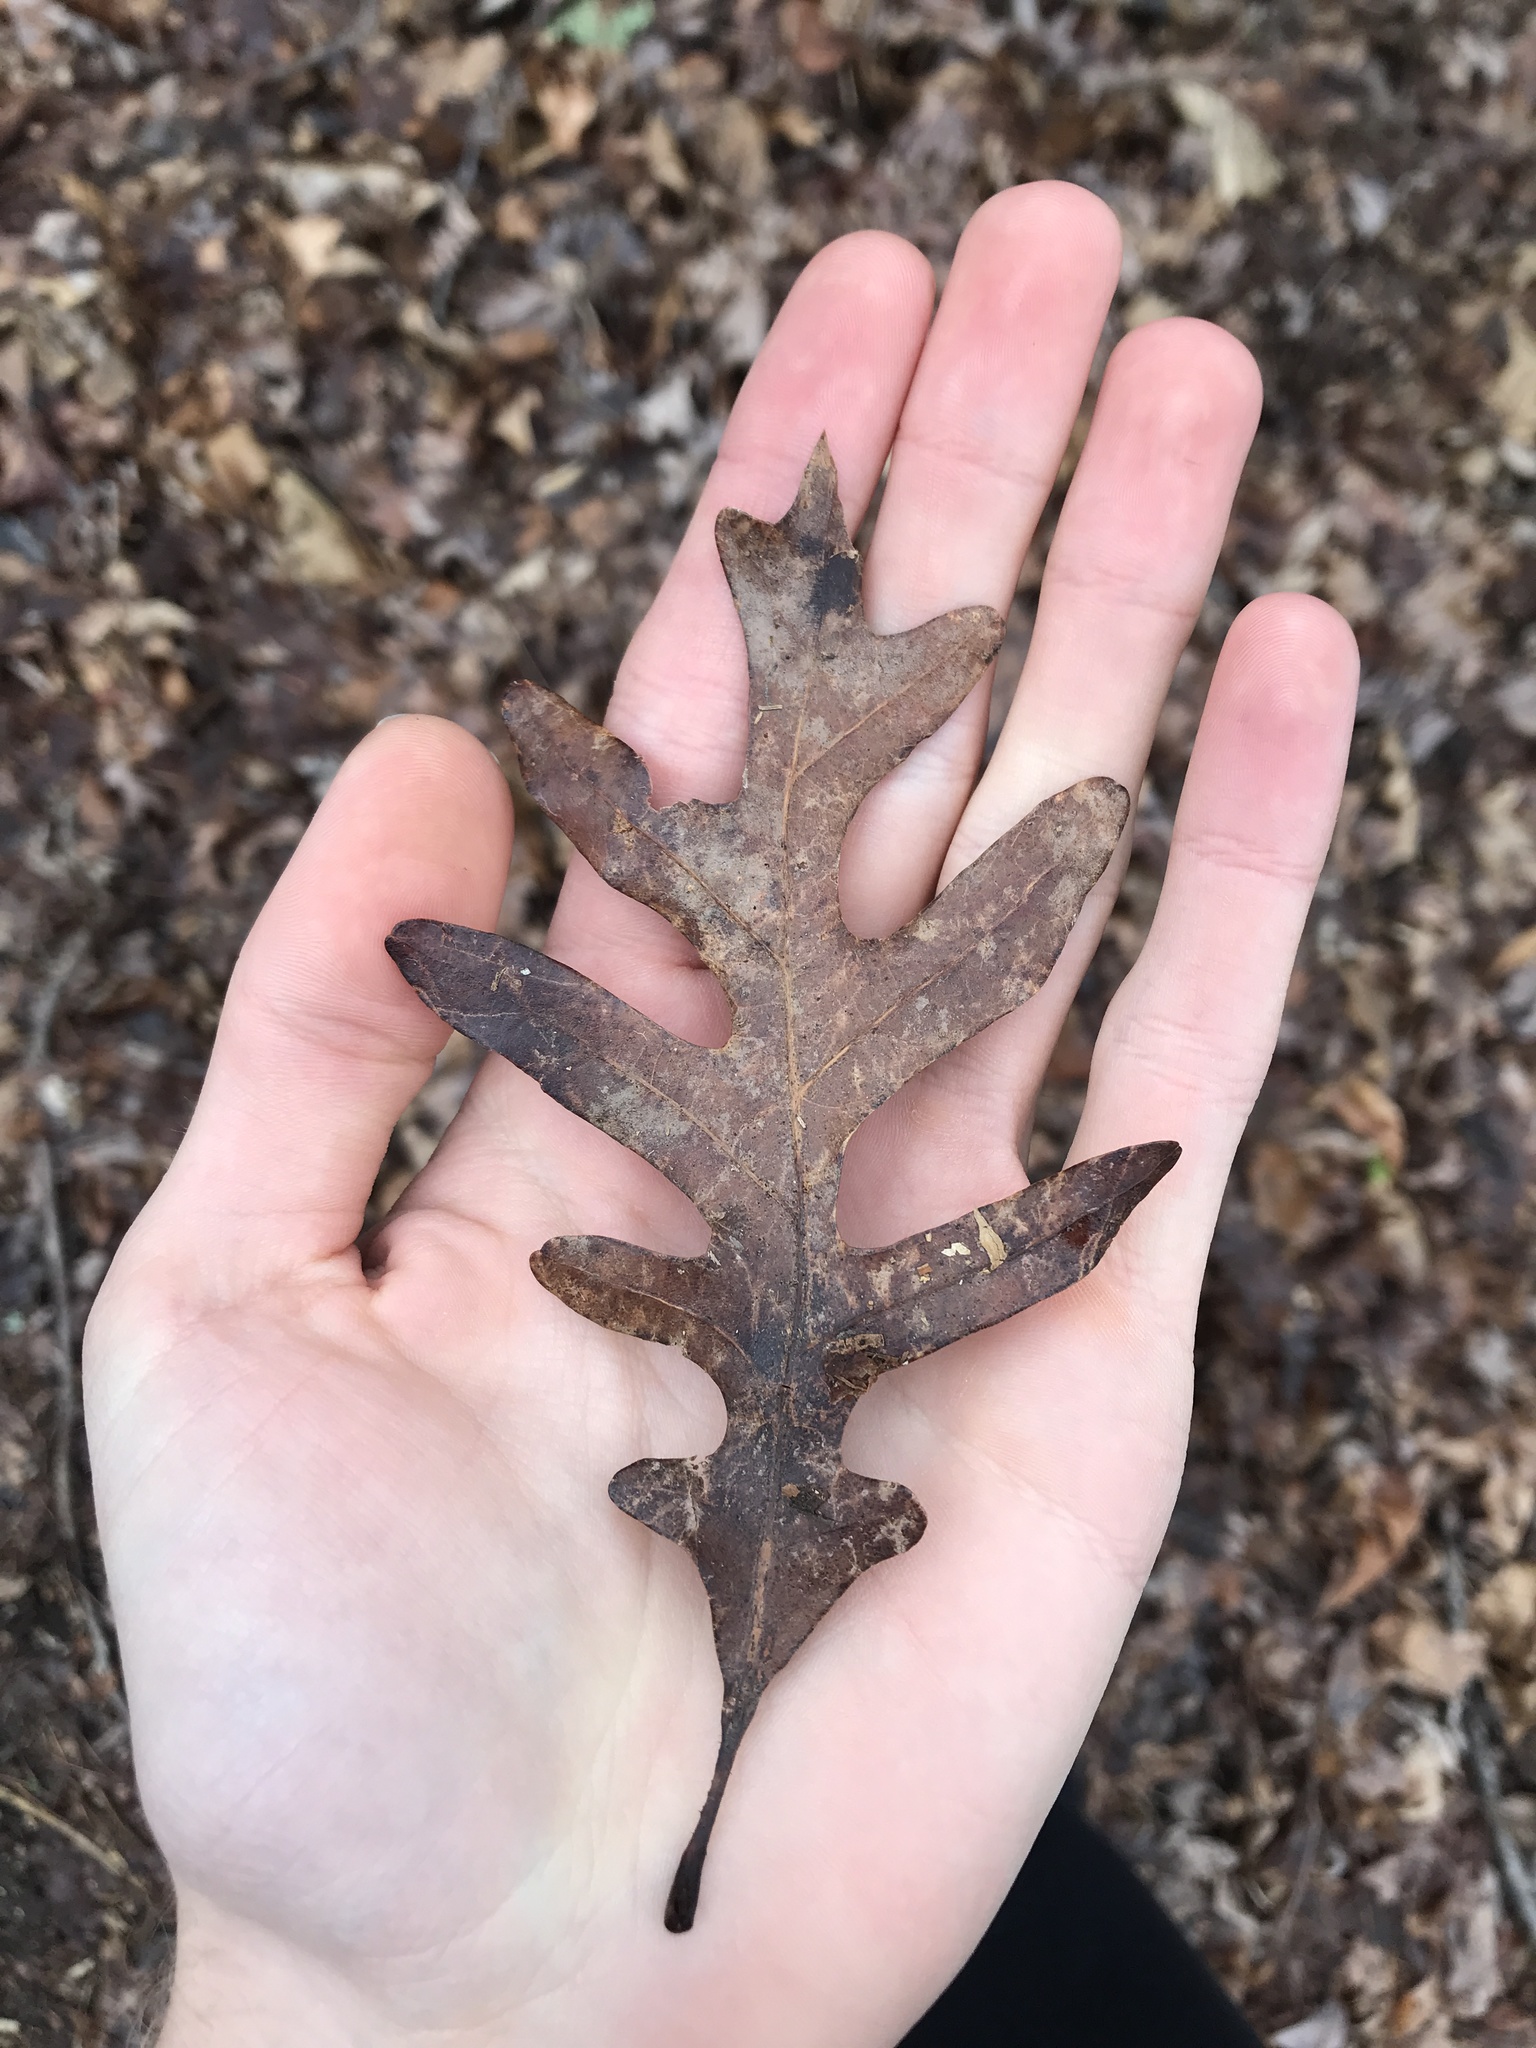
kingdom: Plantae
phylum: Tracheophyta
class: Magnoliopsida
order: Fagales
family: Fagaceae
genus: Quercus
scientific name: Quercus alba
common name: White oak
